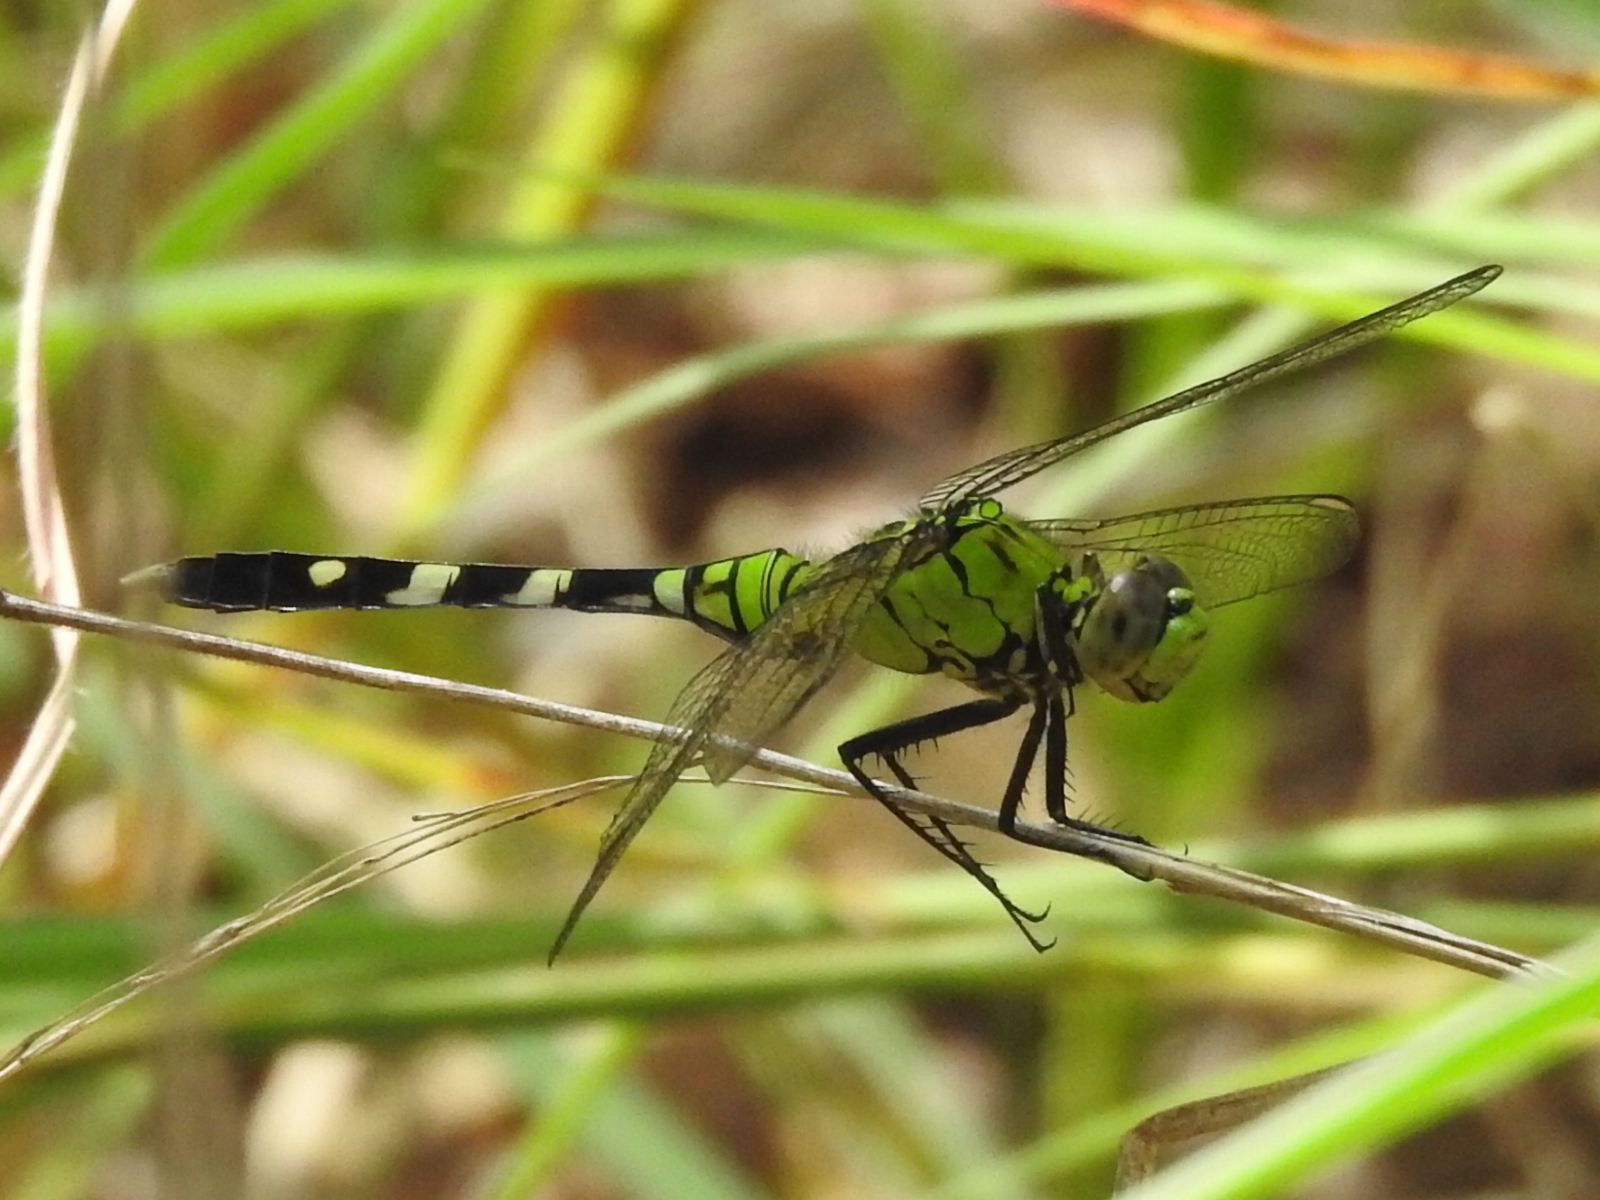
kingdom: Animalia
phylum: Arthropoda
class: Insecta
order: Odonata
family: Libellulidae
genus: Erythemis
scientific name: Erythemis simplicicollis
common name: Eastern pondhawk
